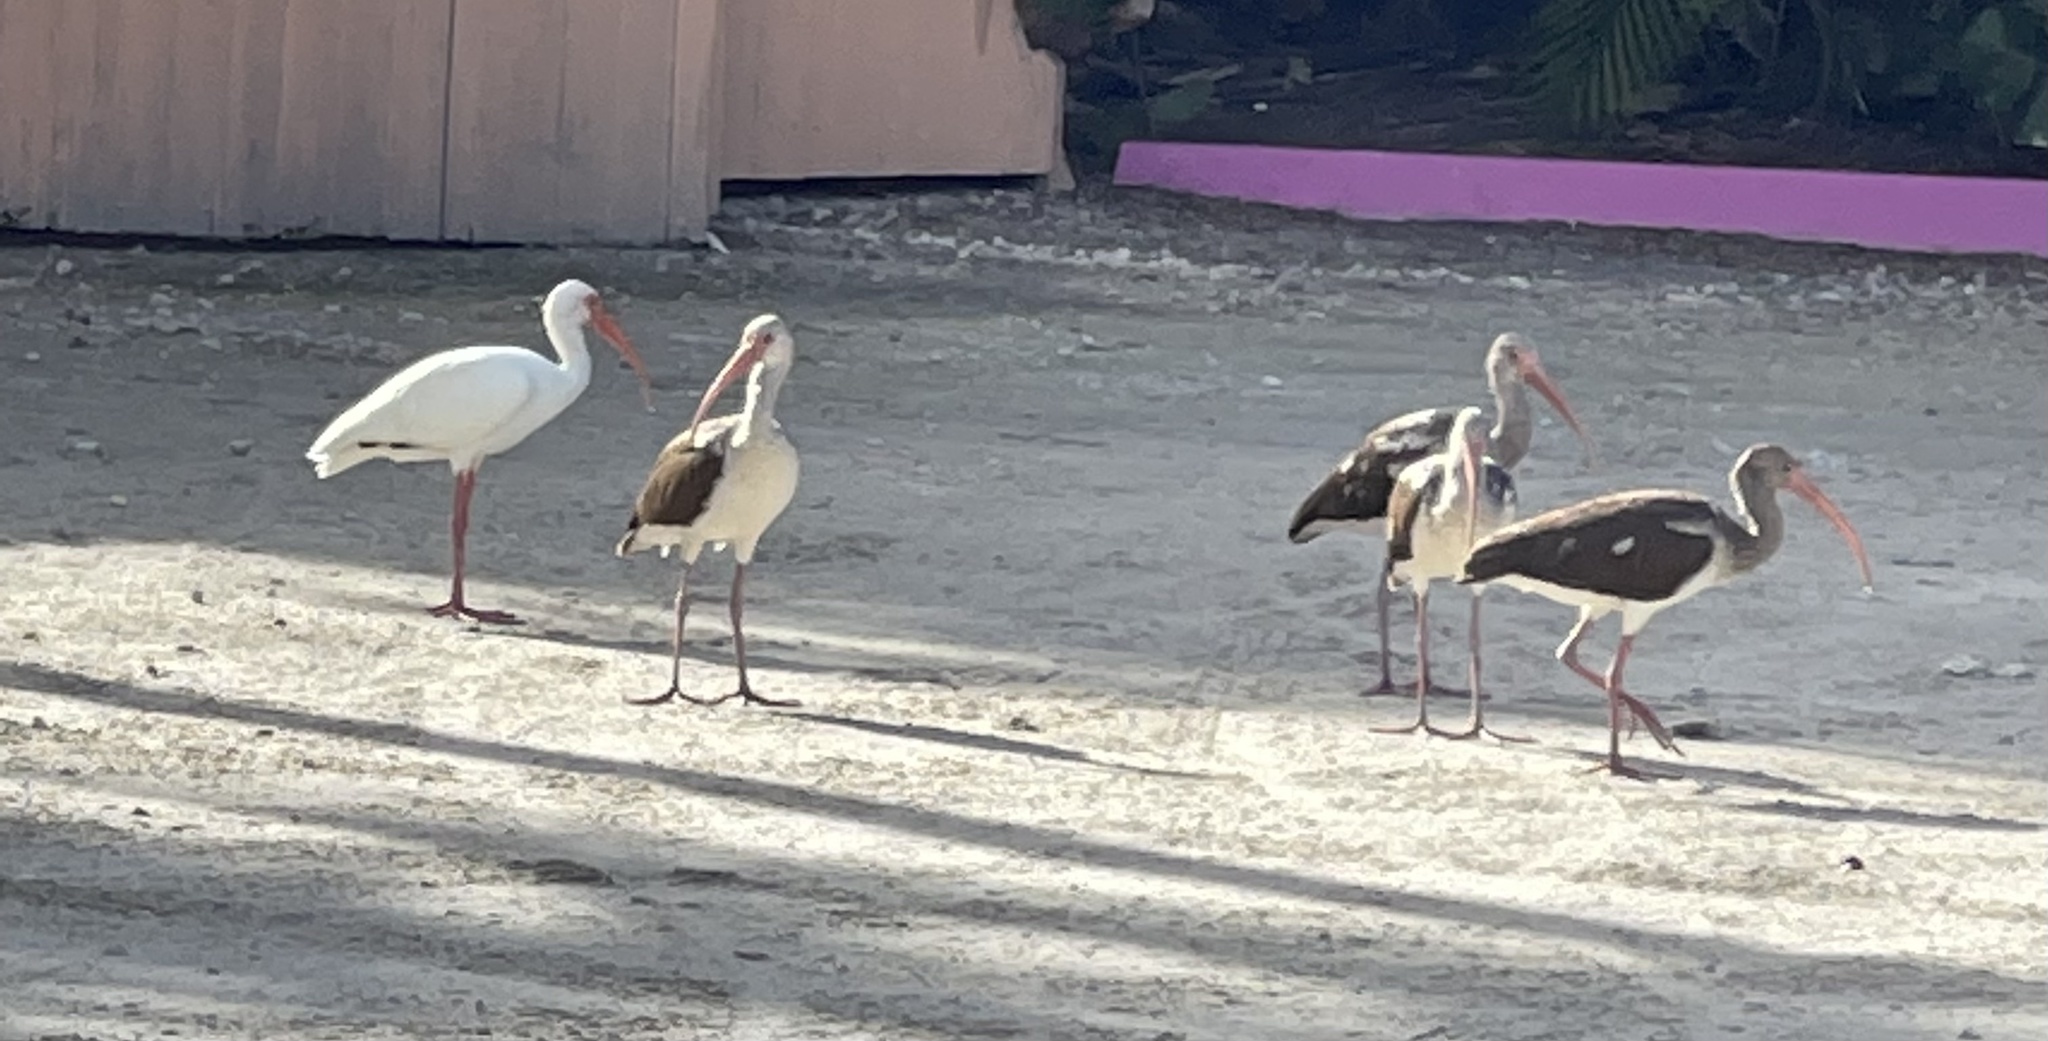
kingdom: Animalia
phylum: Chordata
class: Aves
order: Pelecaniformes
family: Threskiornithidae
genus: Eudocimus
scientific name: Eudocimus albus
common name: White ibis
